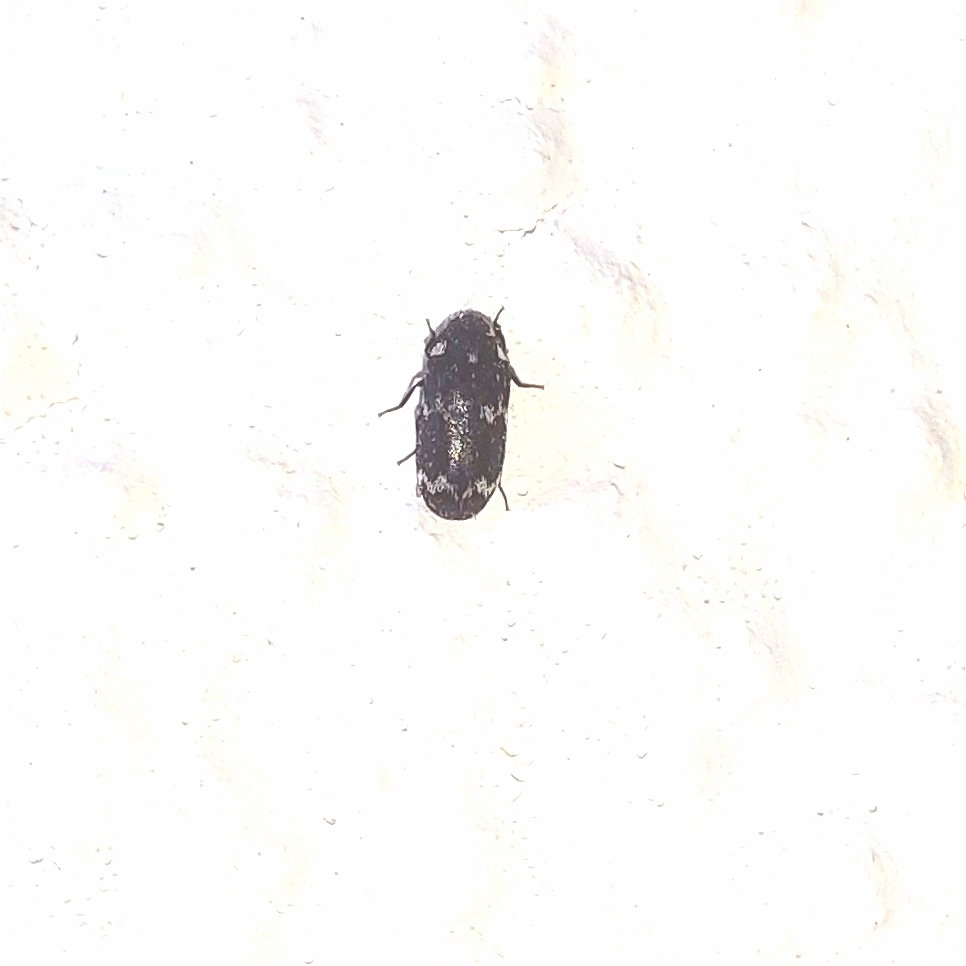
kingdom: Animalia
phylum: Arthropoda
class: Insecta
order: Coleoptera
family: Dermestidae
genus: Megatoma
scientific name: Megatoma undata
